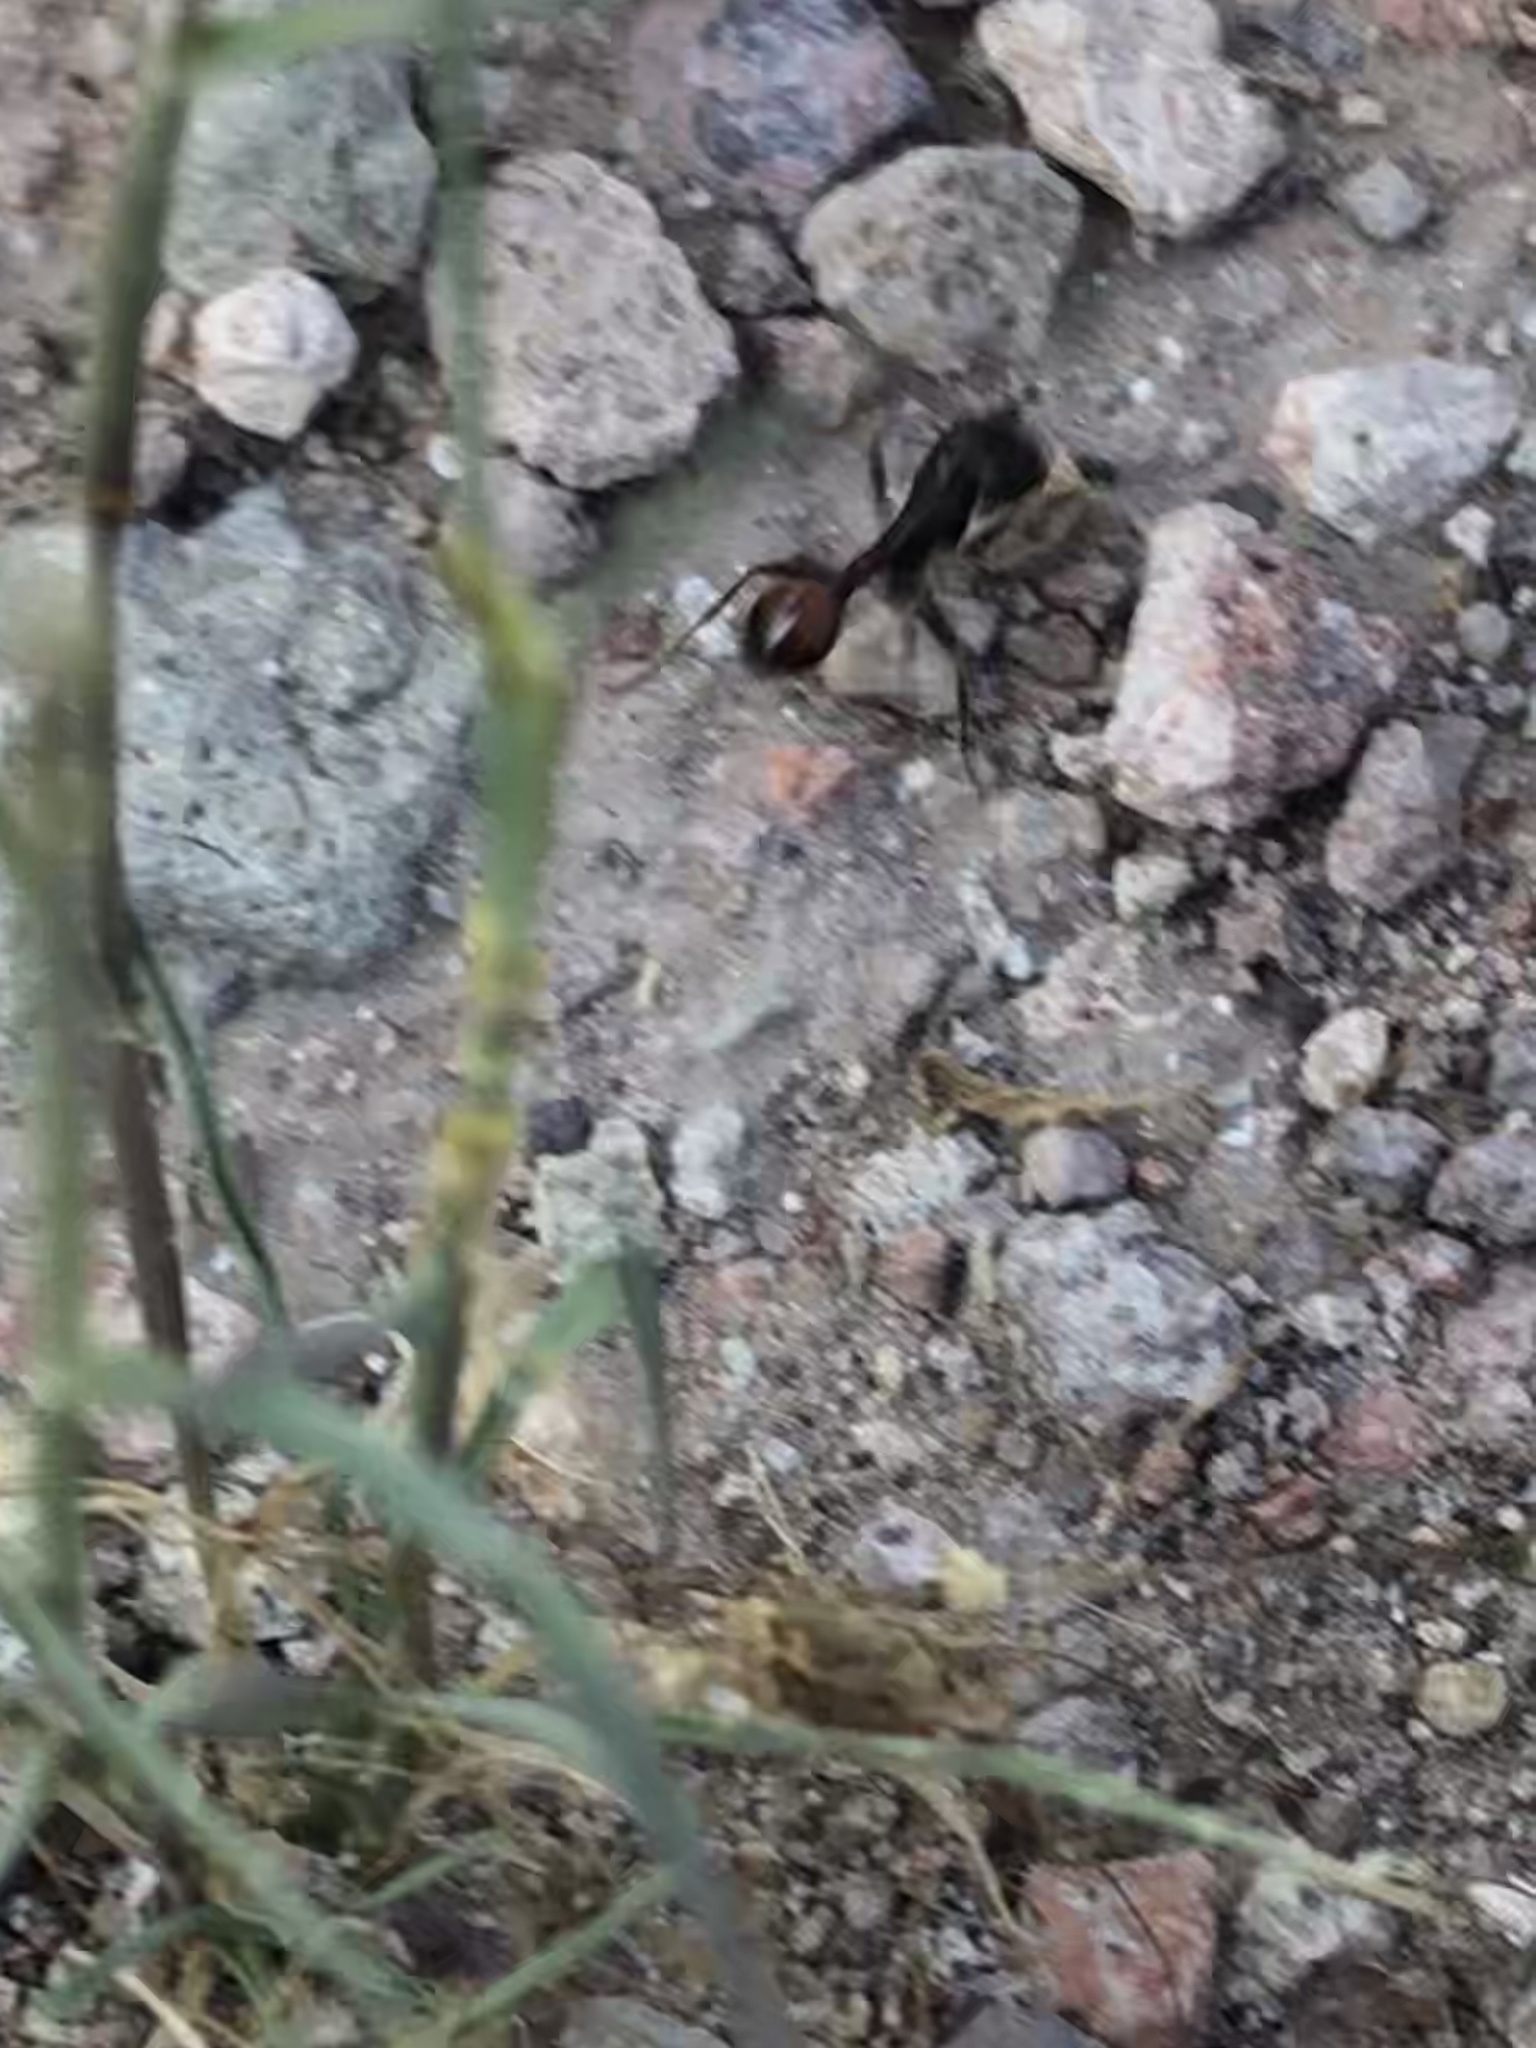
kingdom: Animalia
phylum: Arthropoda
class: Insecta
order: Hymenoptera
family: Formicidae
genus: Pogonomyrmex
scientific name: Pogonomyrmex rugosus
